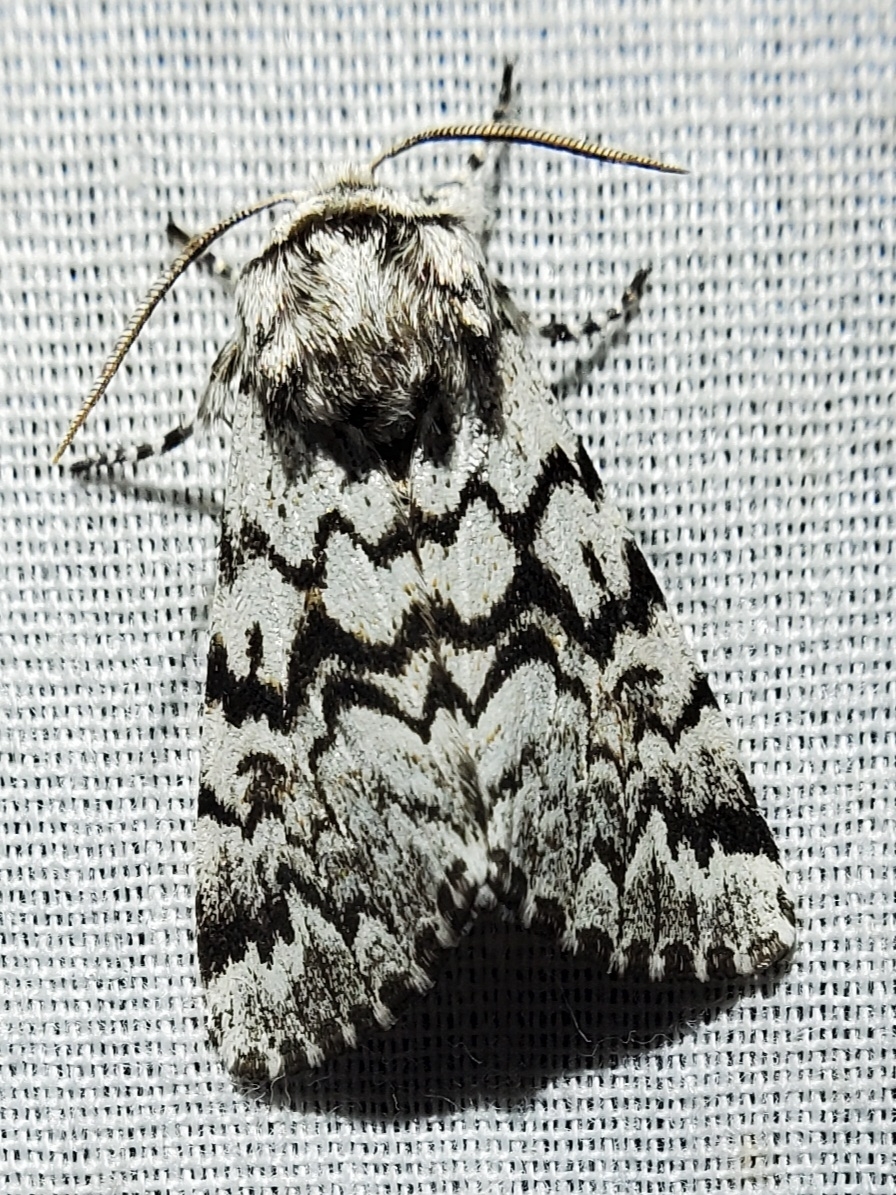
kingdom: Animalia
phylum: Arthropoda
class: Insecta
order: Lepidoptera
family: Noctuidae
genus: Panthea
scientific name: Panthea acronyctoides
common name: Black zigzag moth
